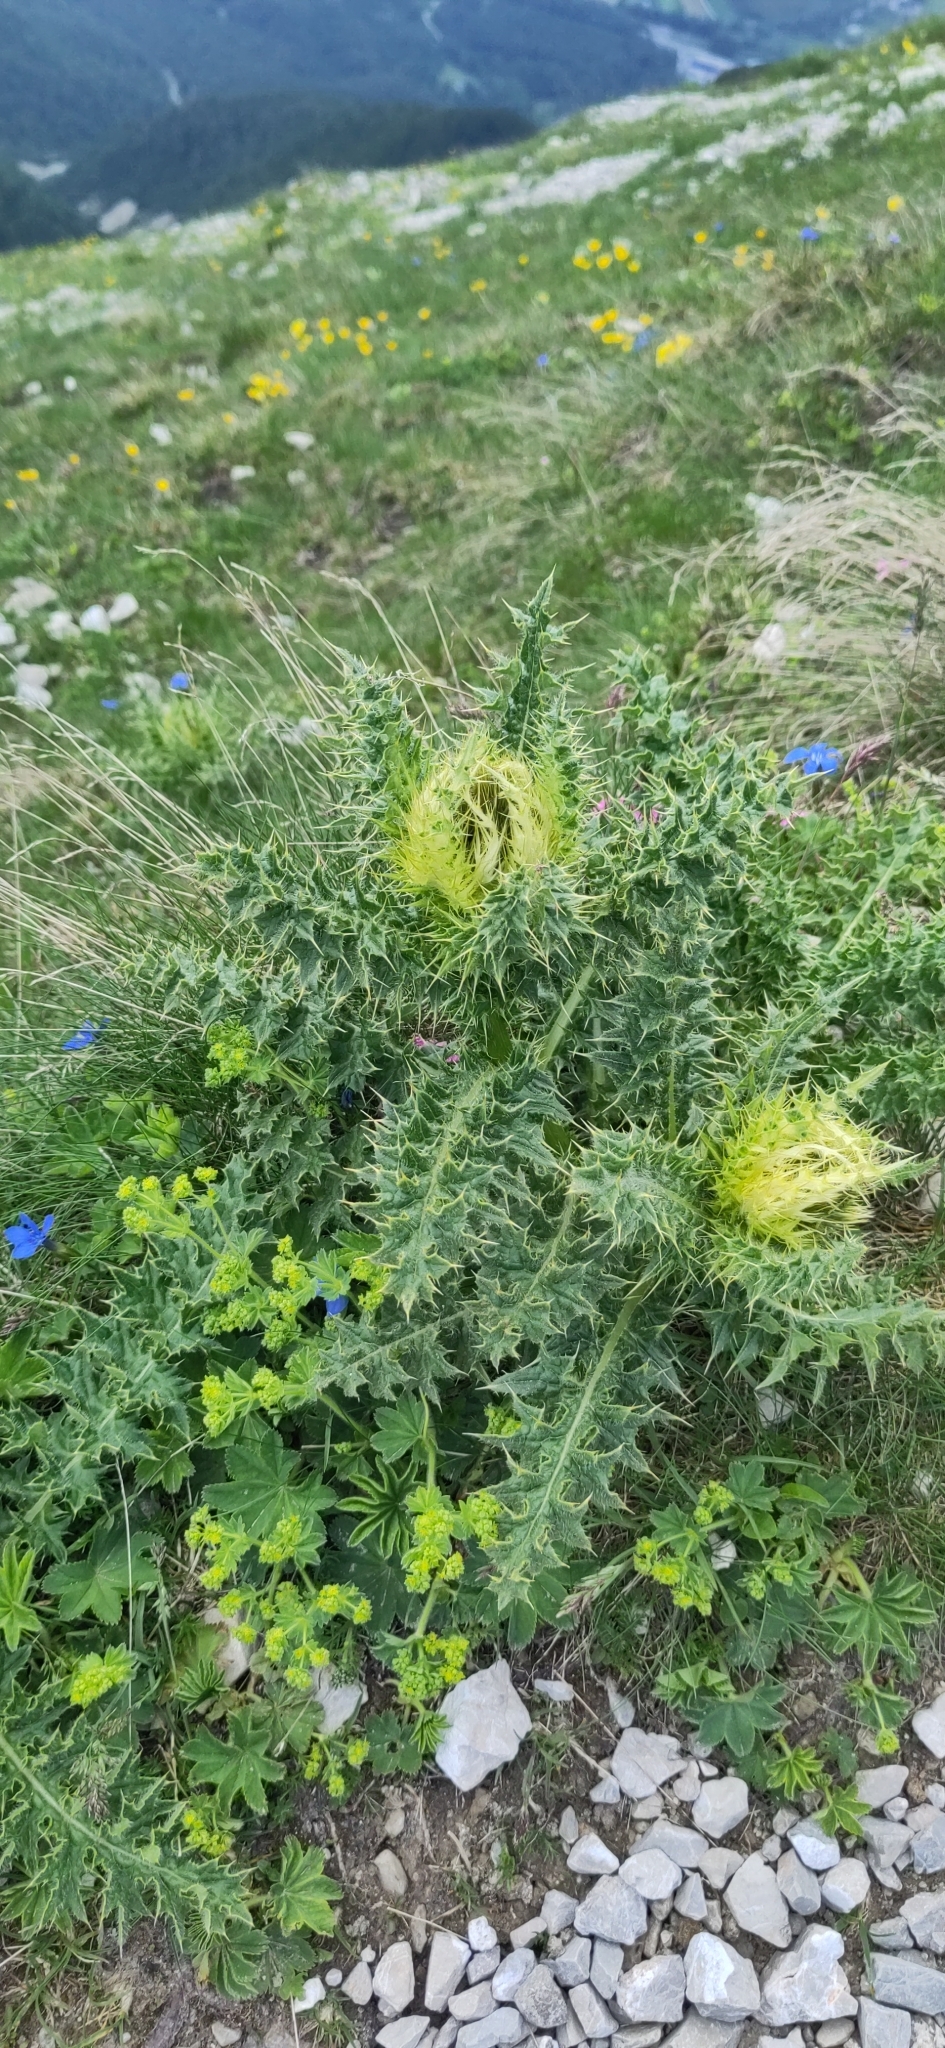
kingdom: Plantae
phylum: Tracheophyta
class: Magnoliopsida
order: Asterales
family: Asteraceae
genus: Cirsium
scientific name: Cirsium spinosissimum
